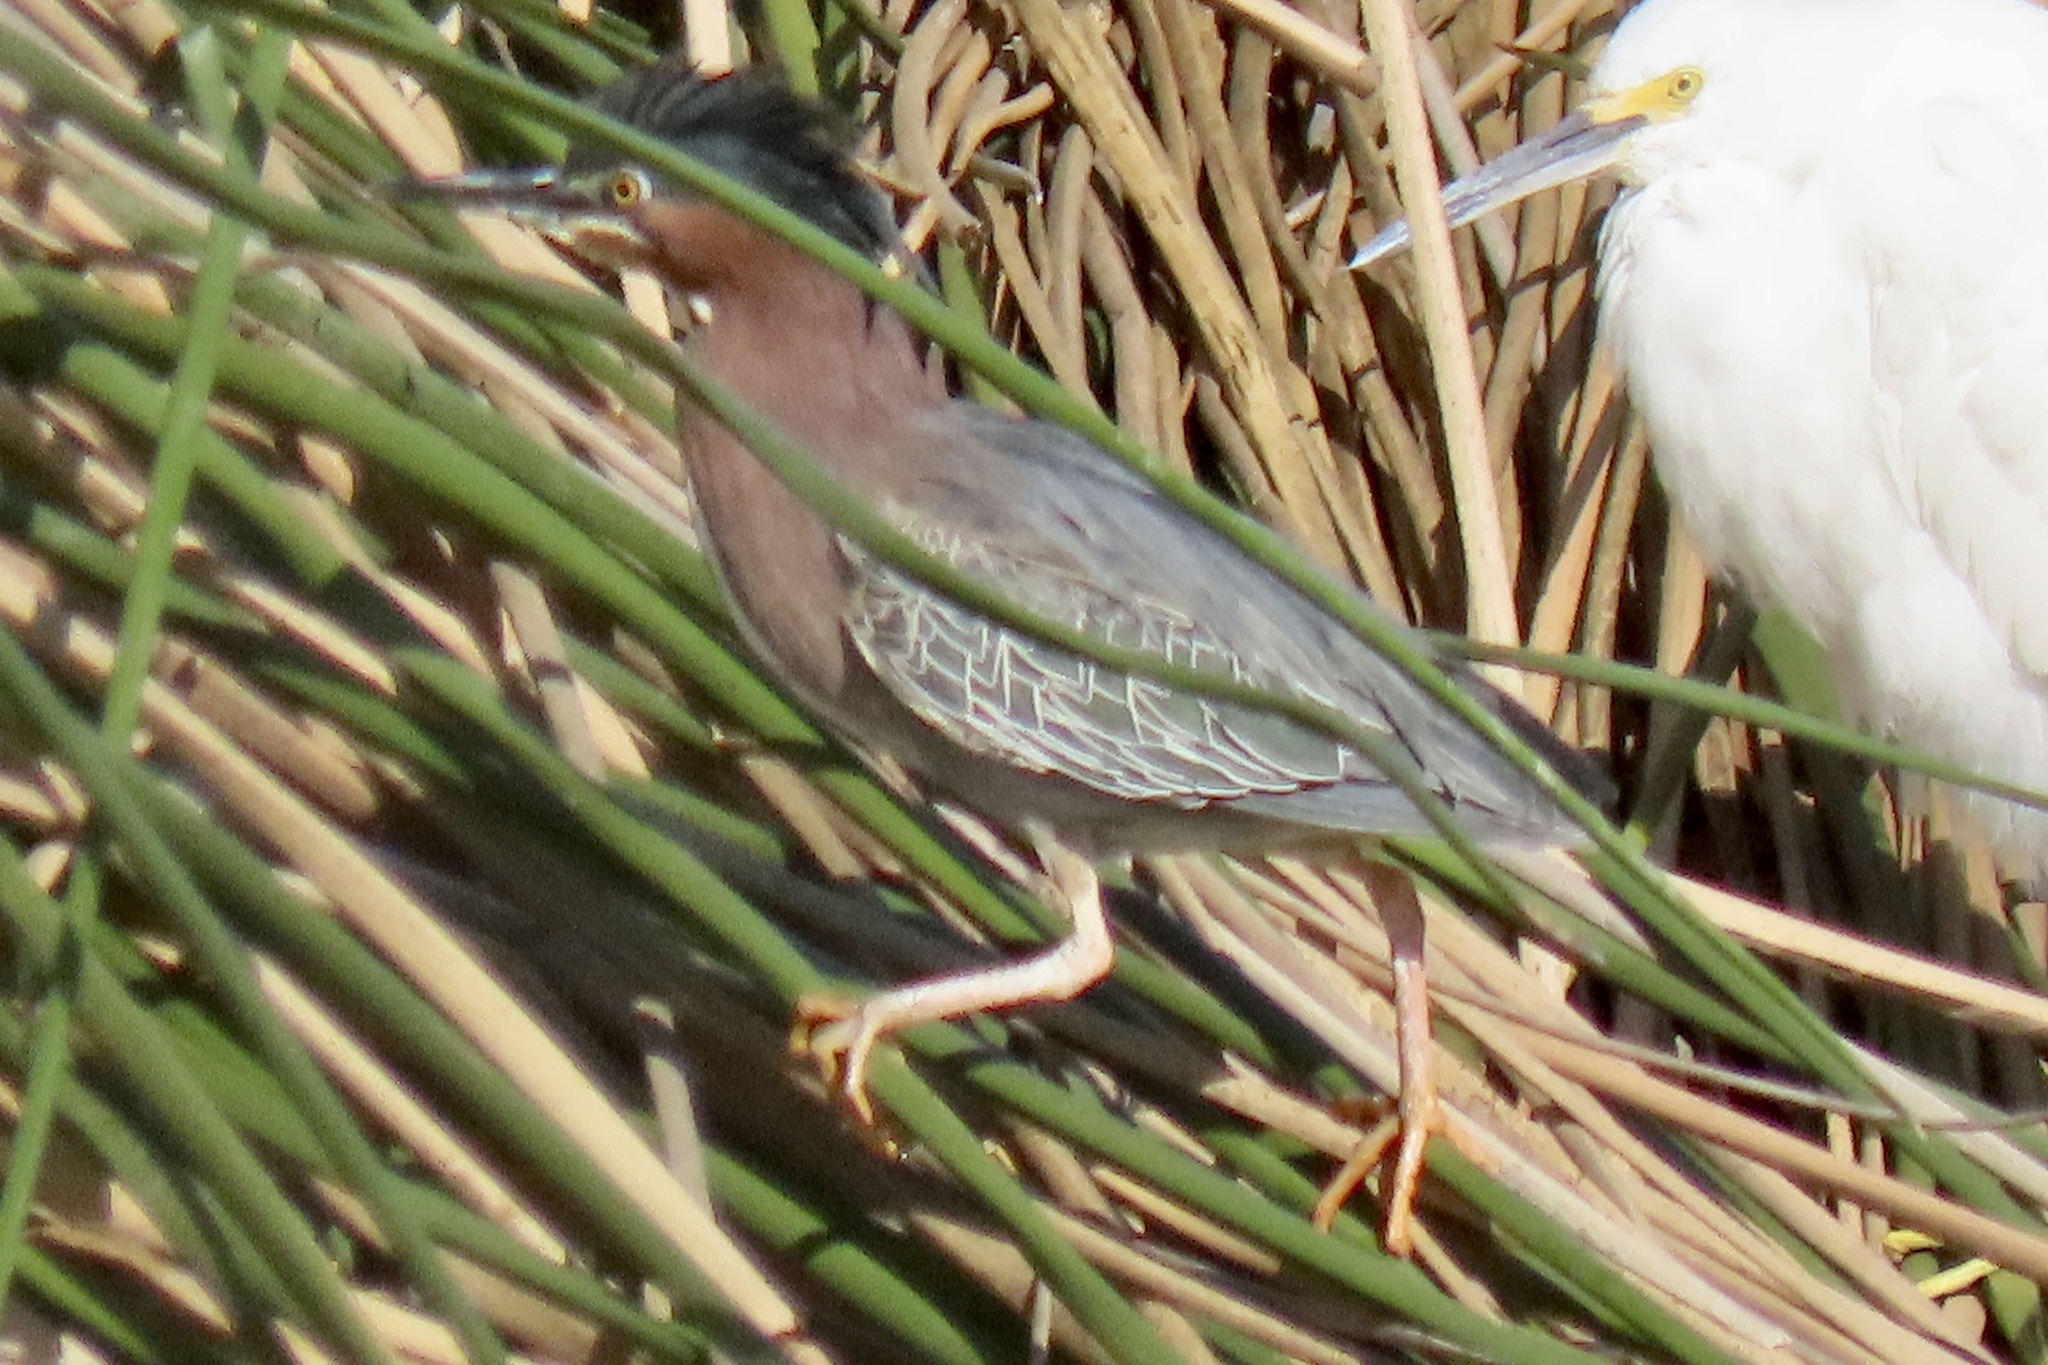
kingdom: Animalia
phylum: Chordata
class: Aves
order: Pelecaniformes
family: Ardeidae
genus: Butorides
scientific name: Butorides virescens
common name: Green heron
